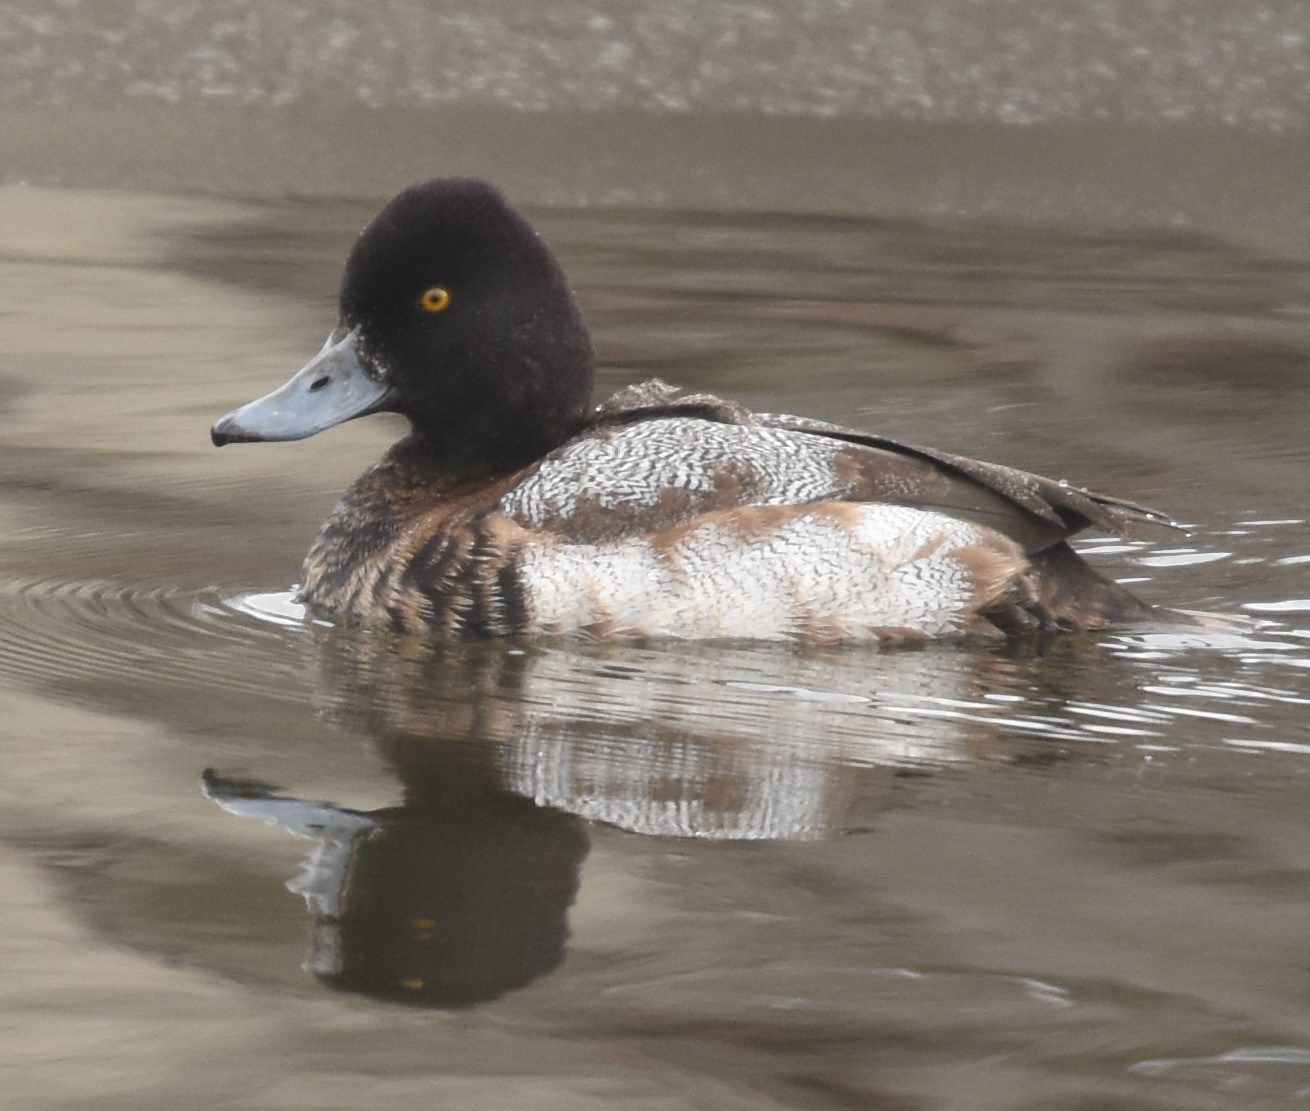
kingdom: Animalia
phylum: Chordata
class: Aves
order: Anseriformes
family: Anatidae
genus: Aythya
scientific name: Aythya affinis
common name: Lesser scaup
